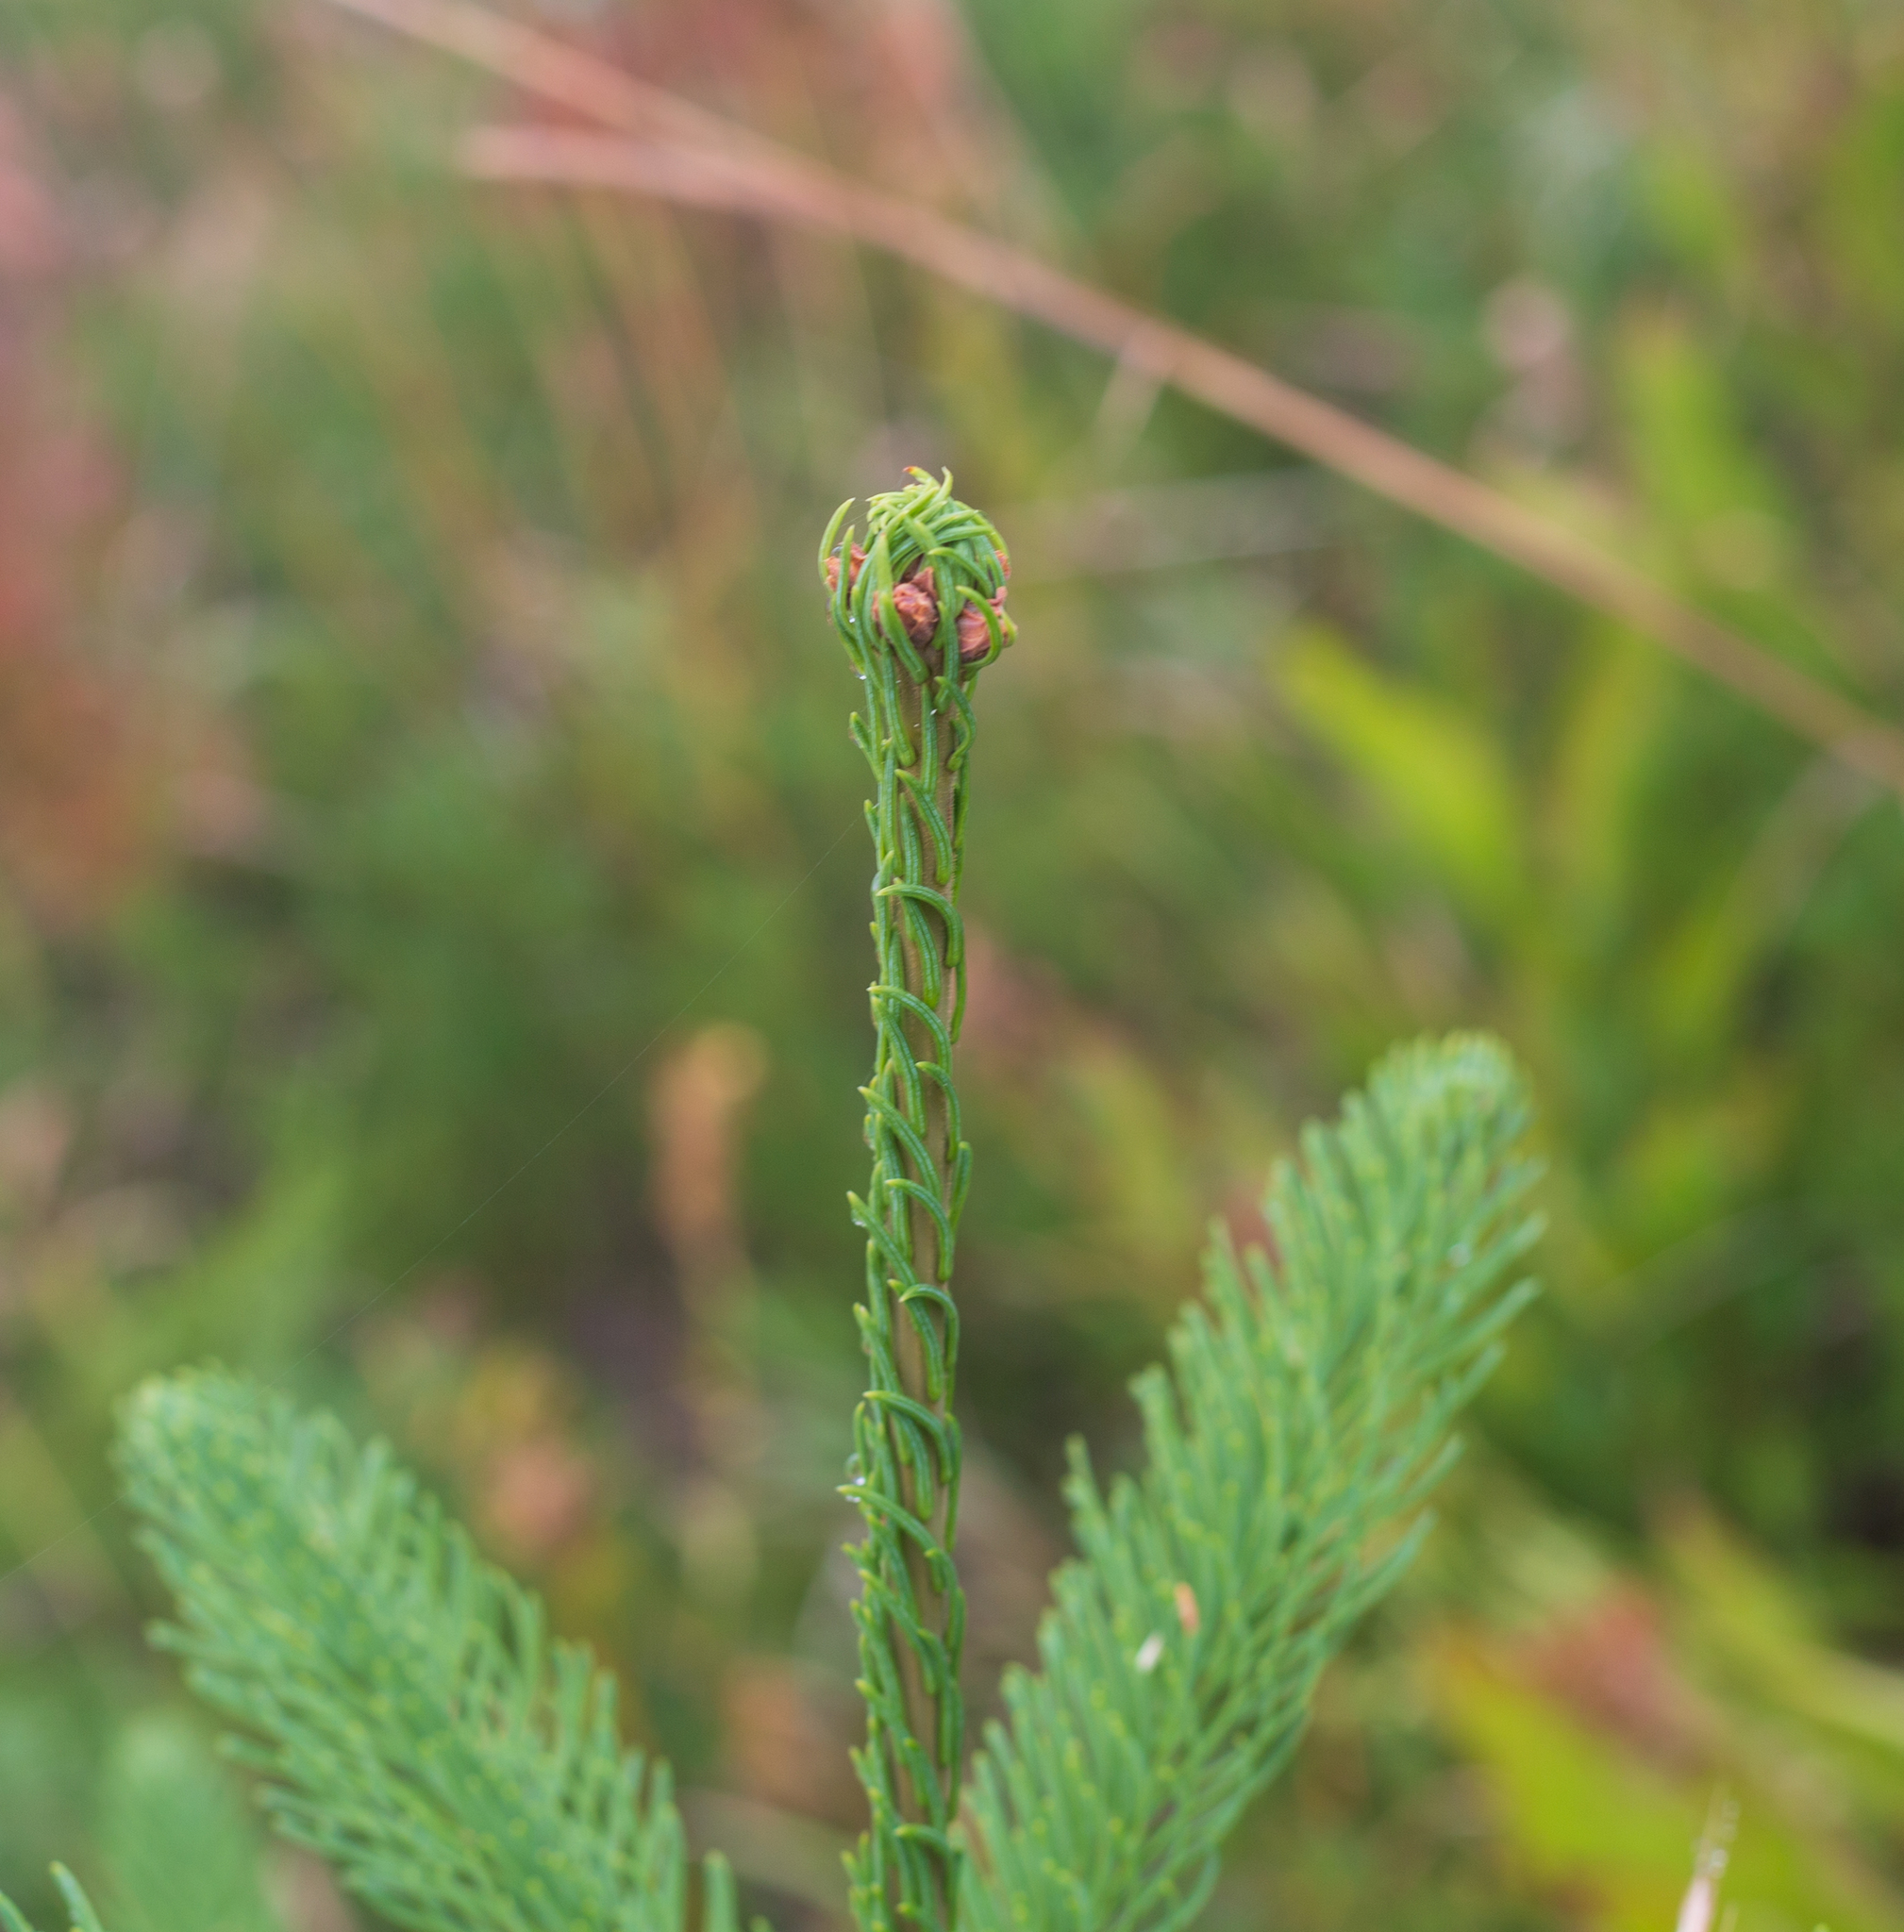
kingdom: Plantae
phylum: Tracheophyta
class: Pinopsida
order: Pinales
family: Pinaceae
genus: Abies
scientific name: Abies procera
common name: Noble fir
